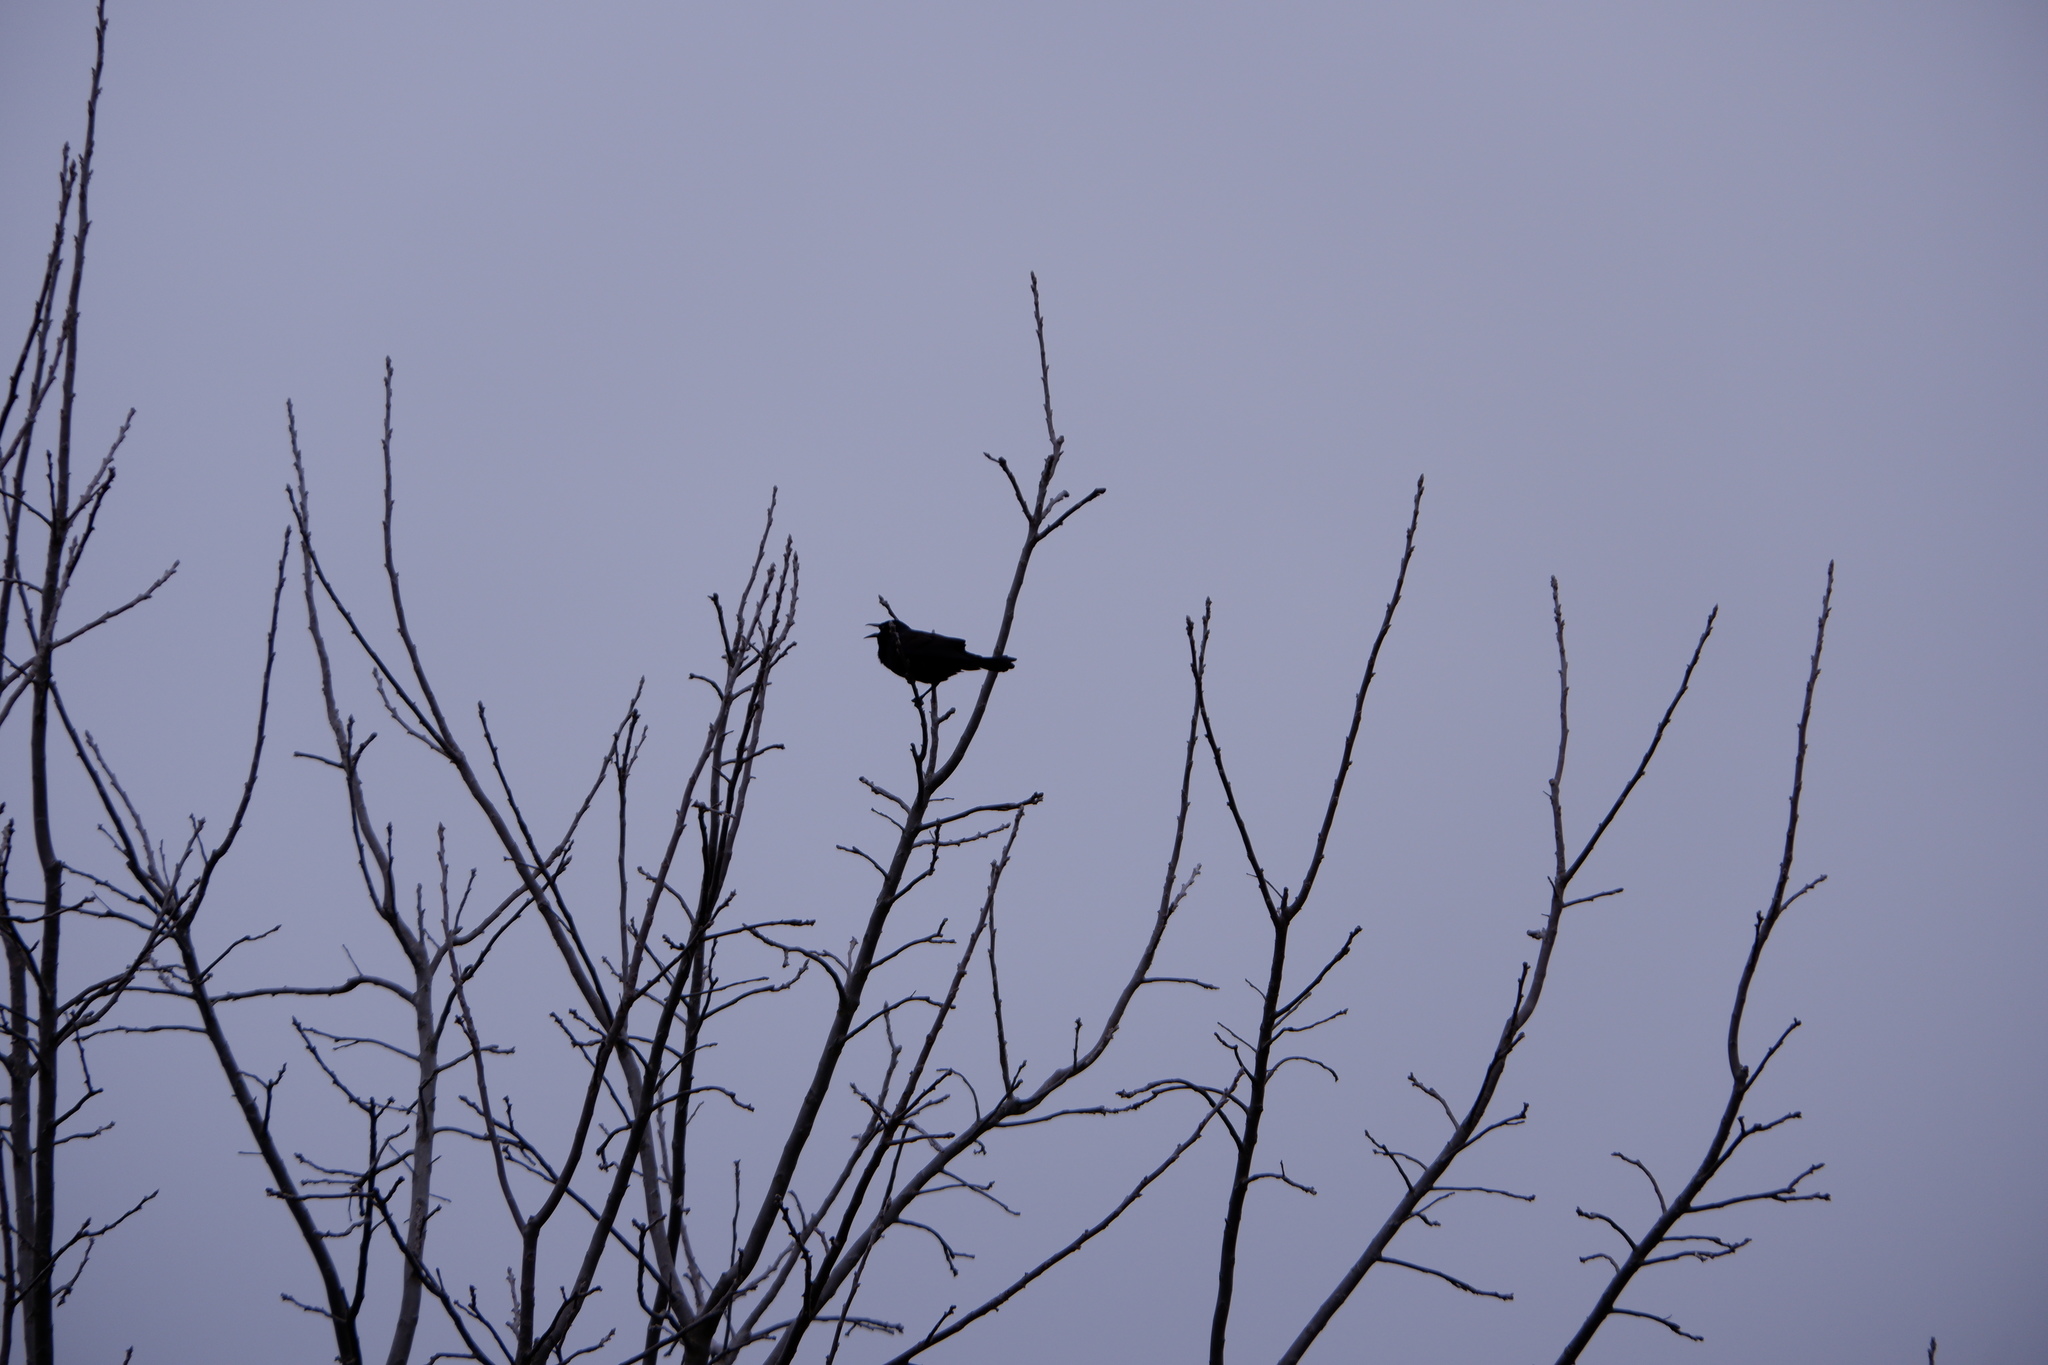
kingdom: Animalia
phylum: Chordata
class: Aves
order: Passeriformes
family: Icteridae
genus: Quiscalus
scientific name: Quiscalus quiscula
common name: Common grackle
